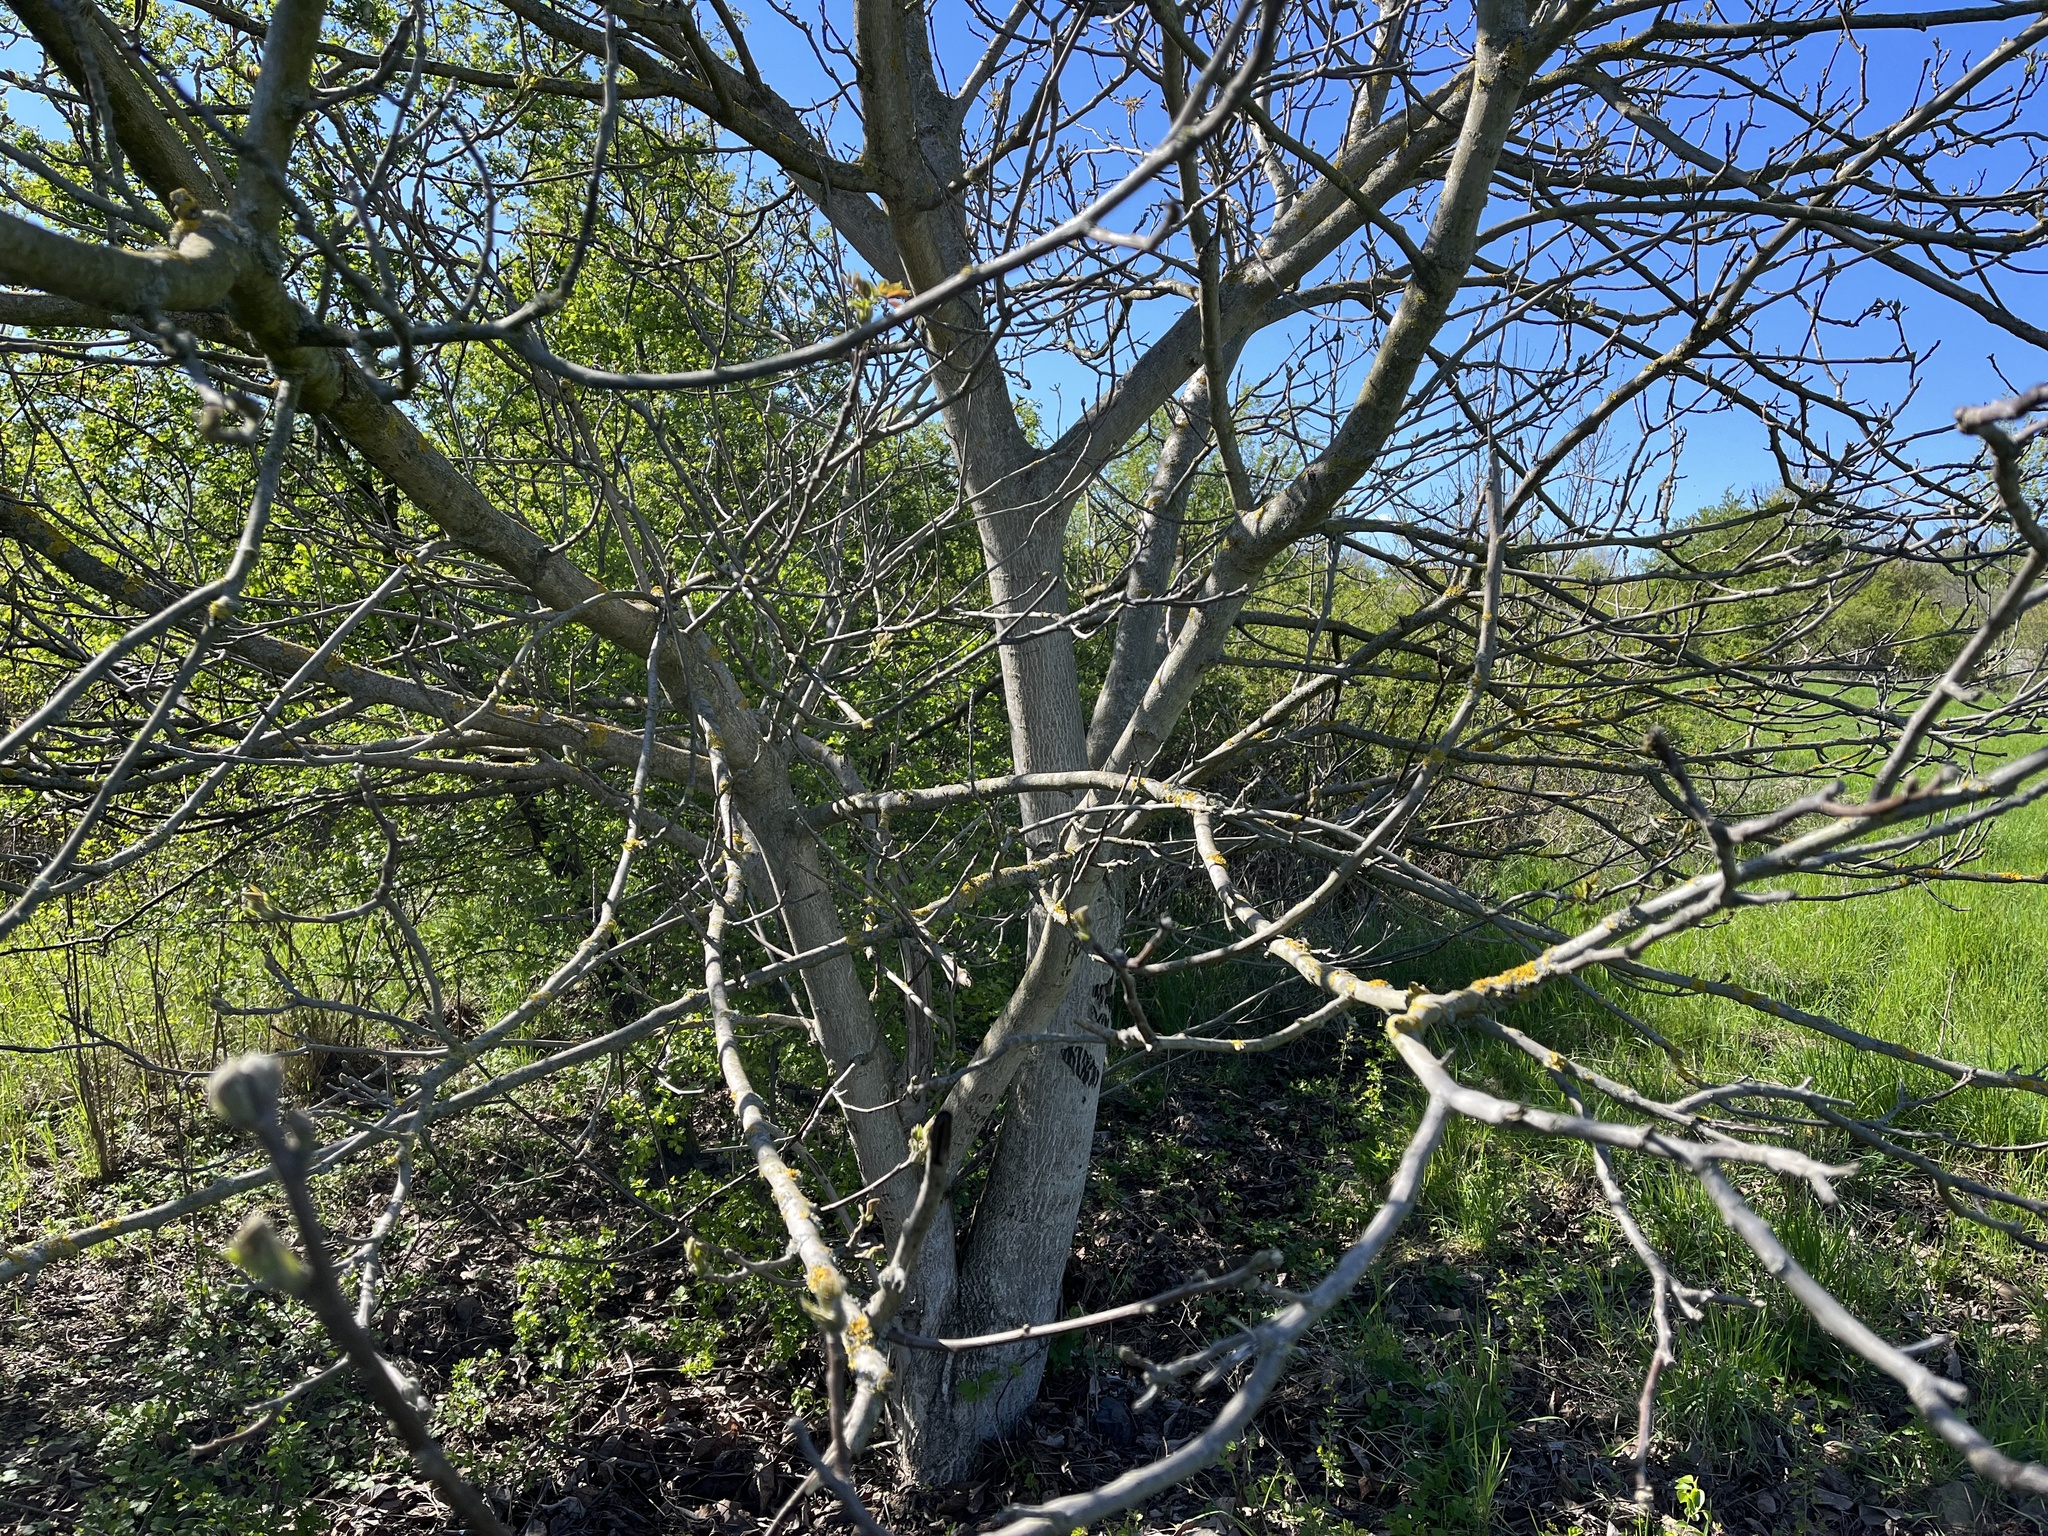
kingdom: Plantae
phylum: Tracheophyta
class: Magnoliopsida
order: Fagales
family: Juglandaceae
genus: Juglans
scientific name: Juglans regia
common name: Walnut
